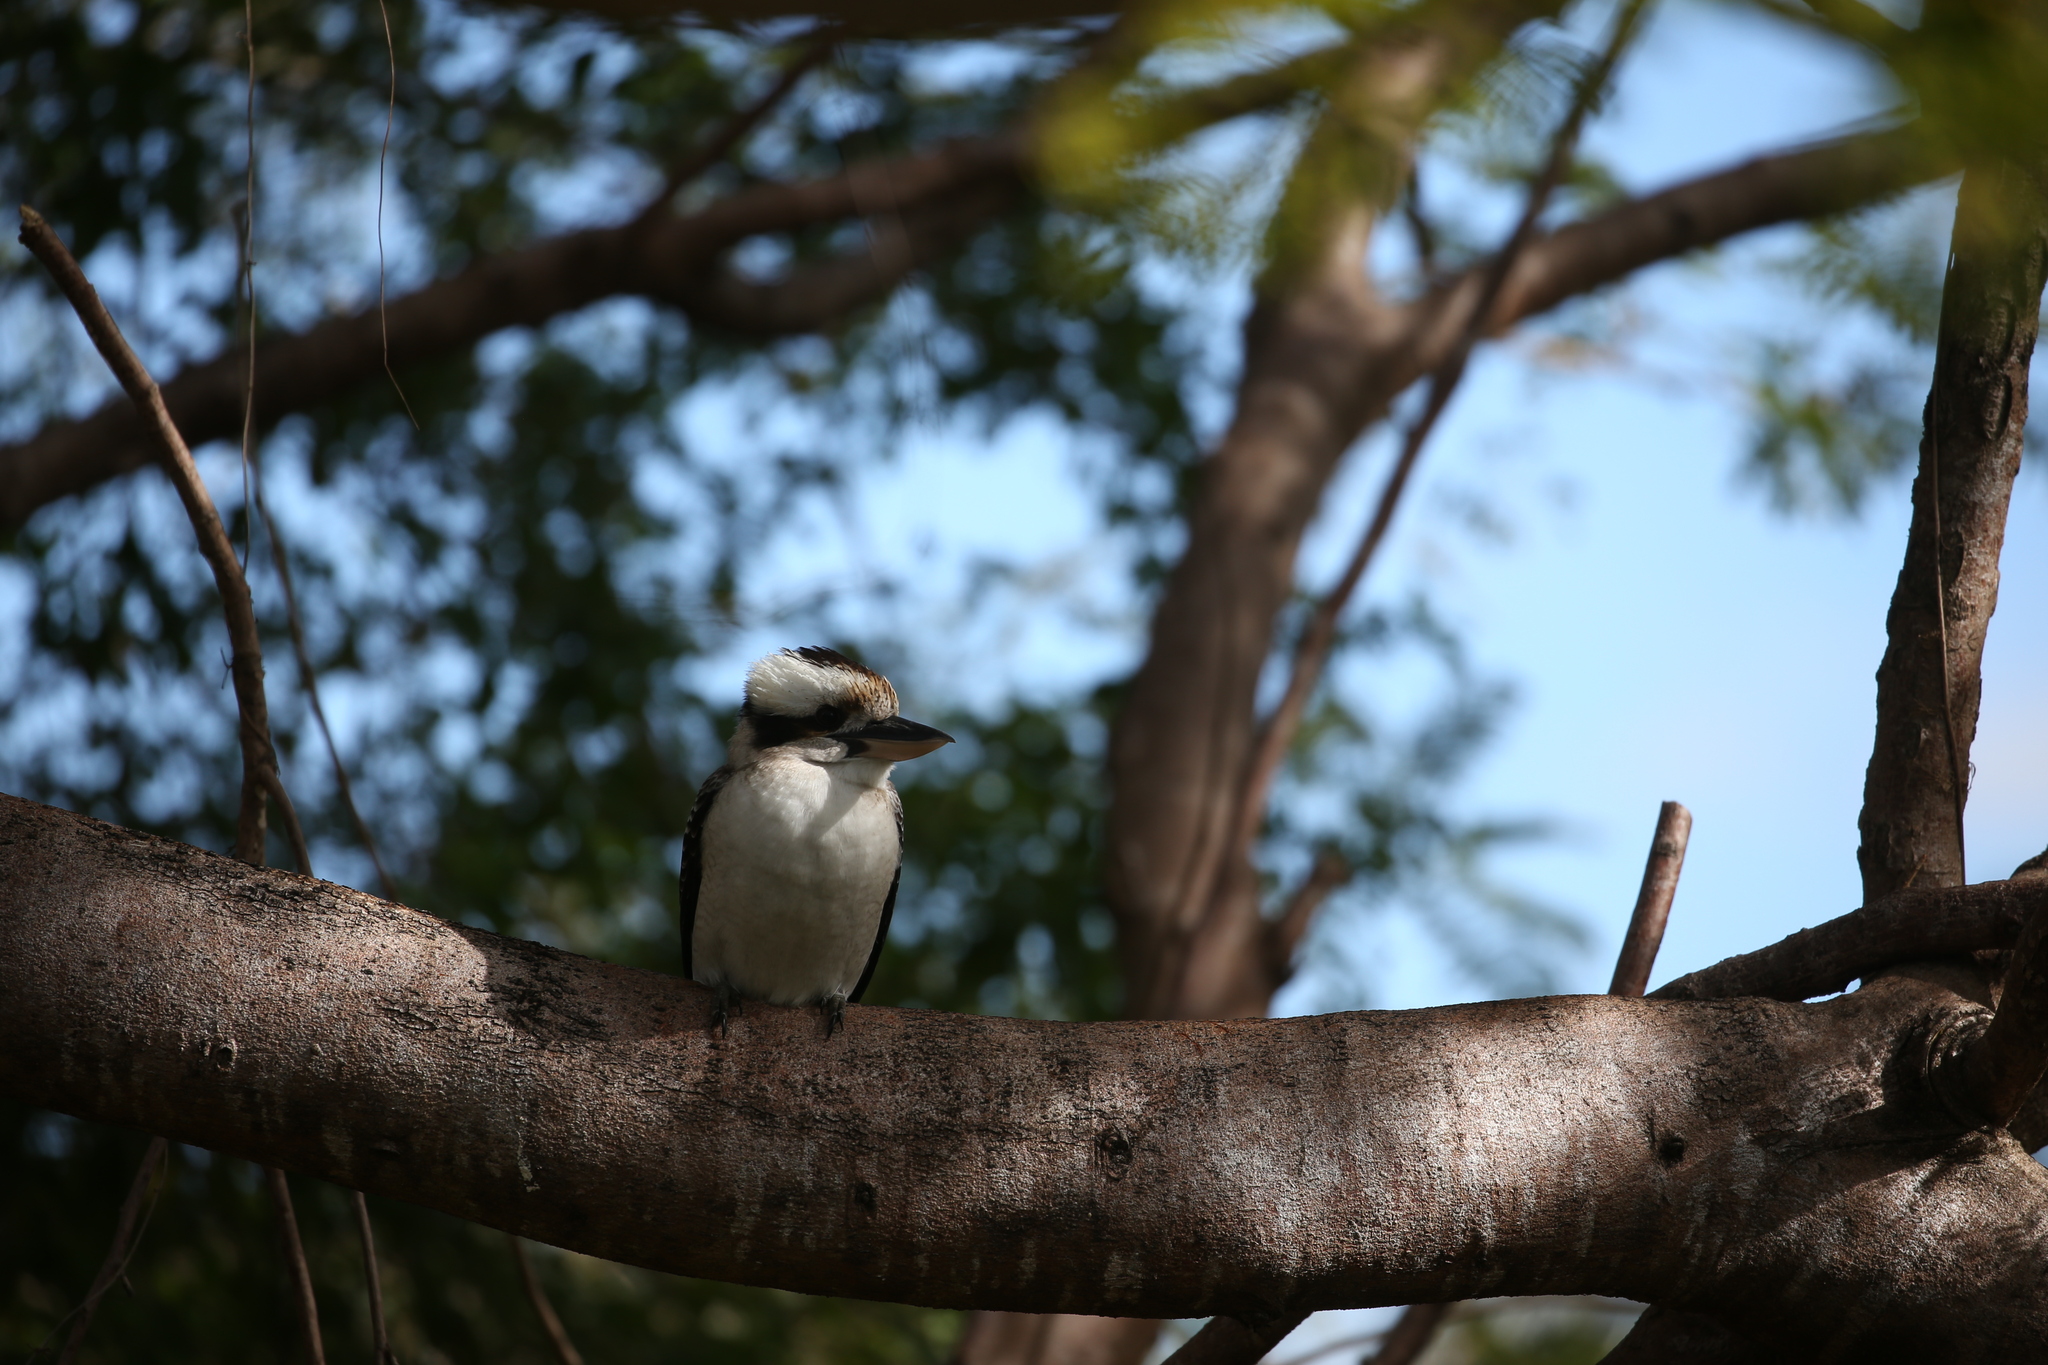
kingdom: Animalia
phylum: Chordata
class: Aves
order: Coraciiformes
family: Alcedinidae
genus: Dacelo
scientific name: Dacelo novaeguineae
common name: Laughing kookaburra
